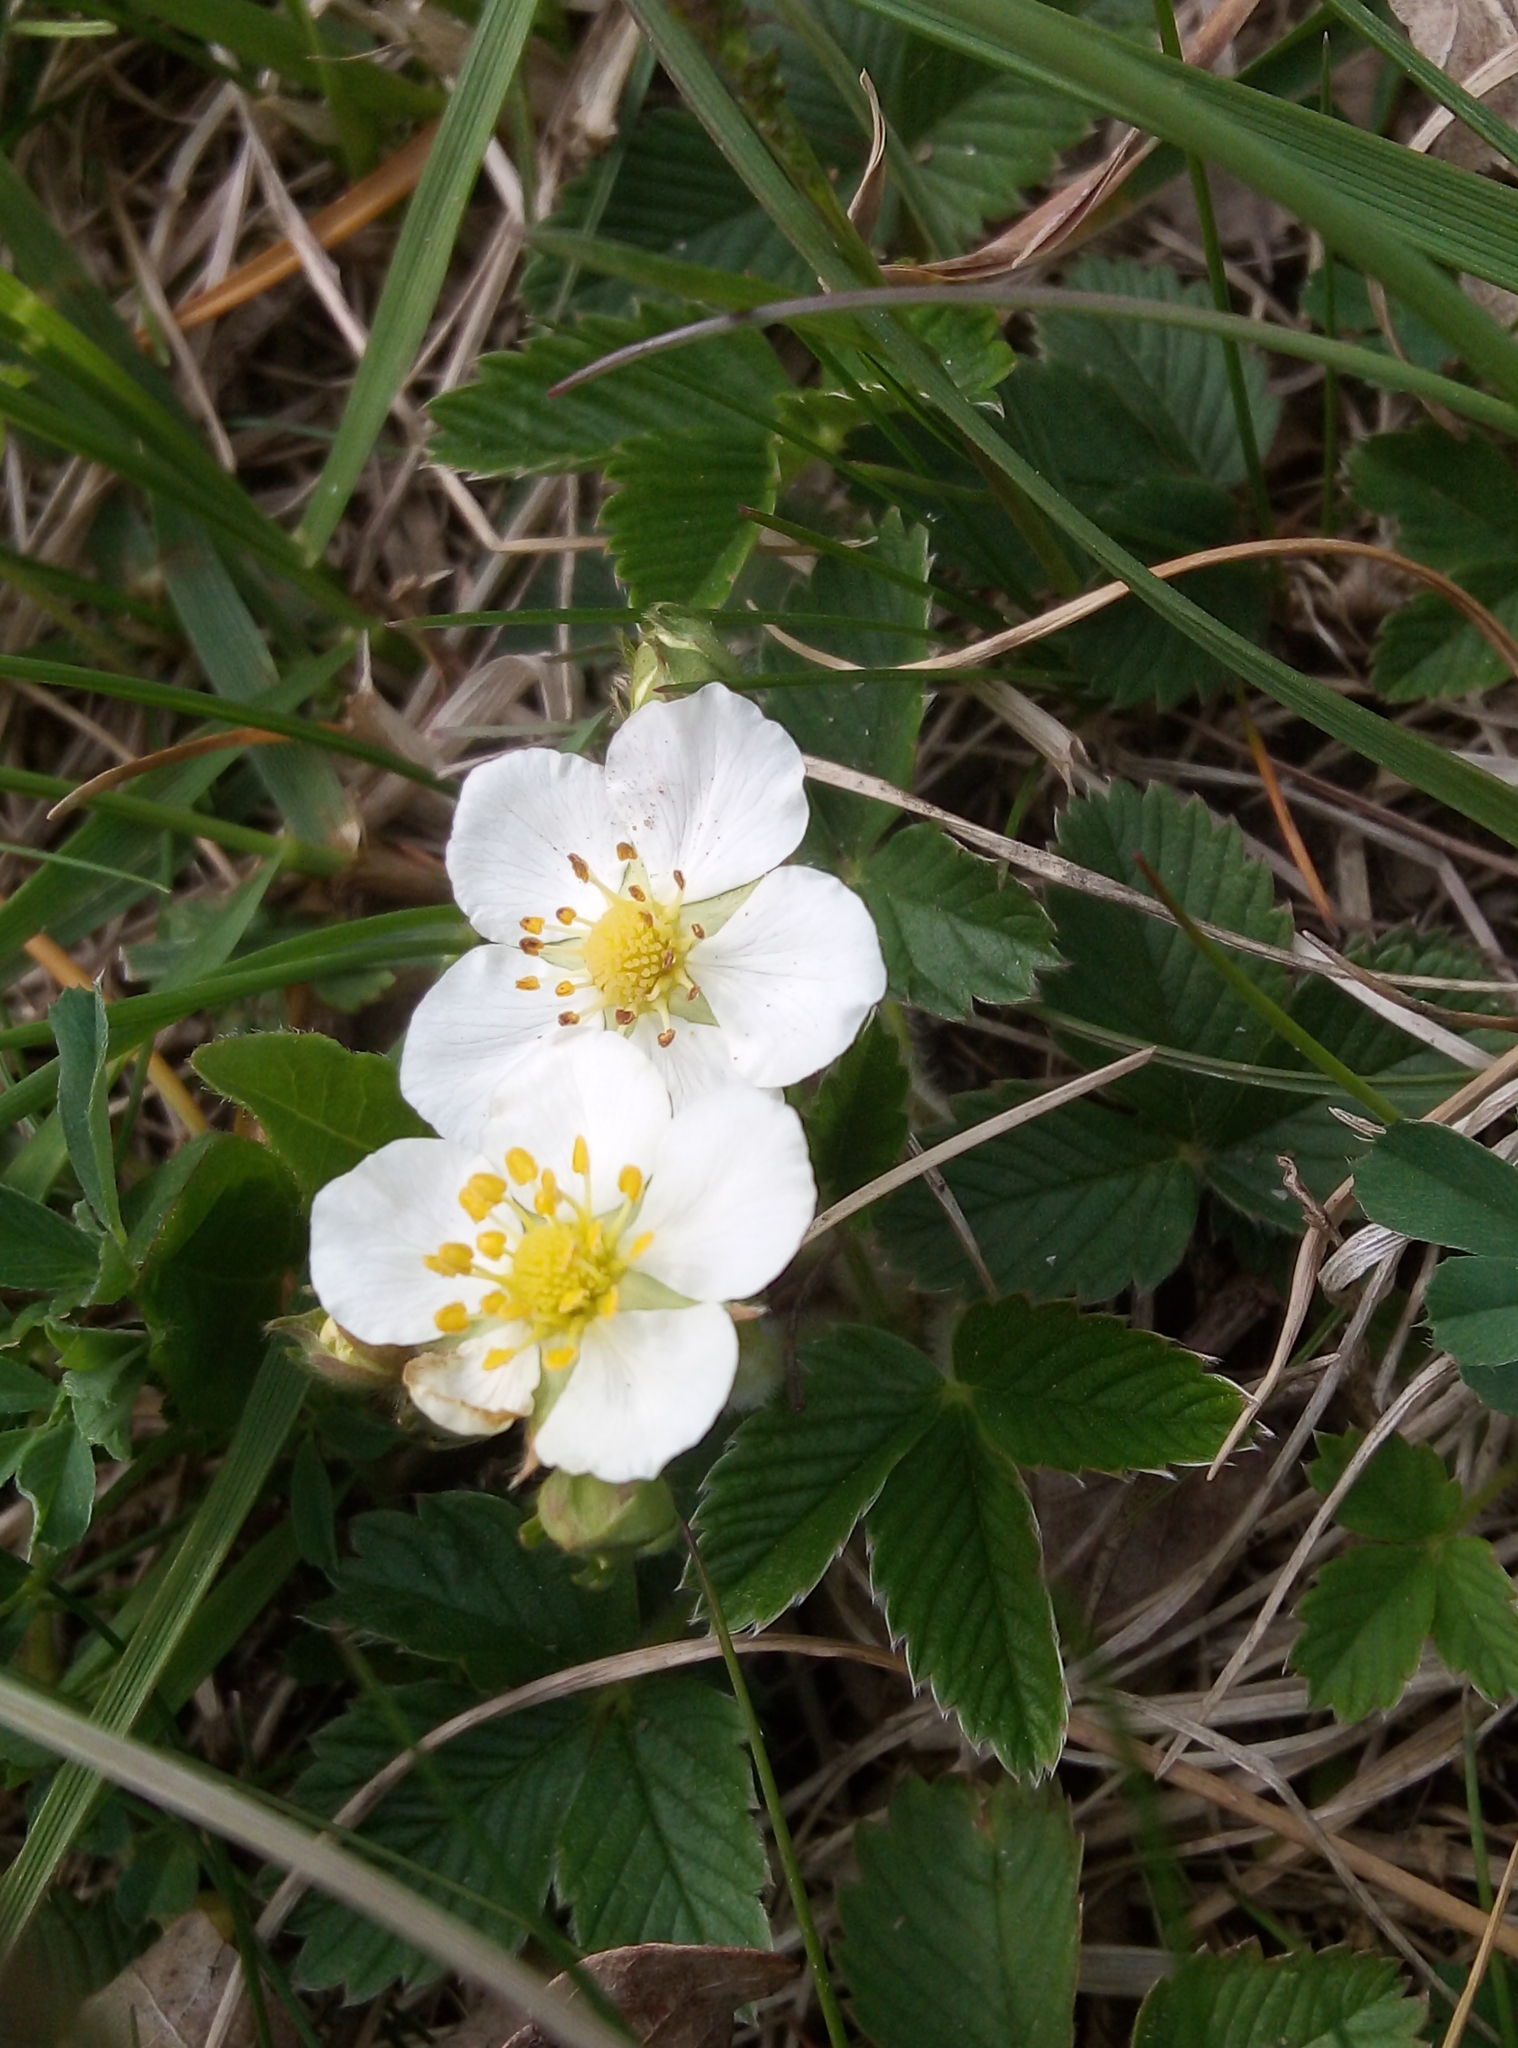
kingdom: Plantae
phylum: Tracheophyta
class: Magnoliopsida
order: Rosales
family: Rosaceae
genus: Fragaria
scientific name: Fragaria viridis
